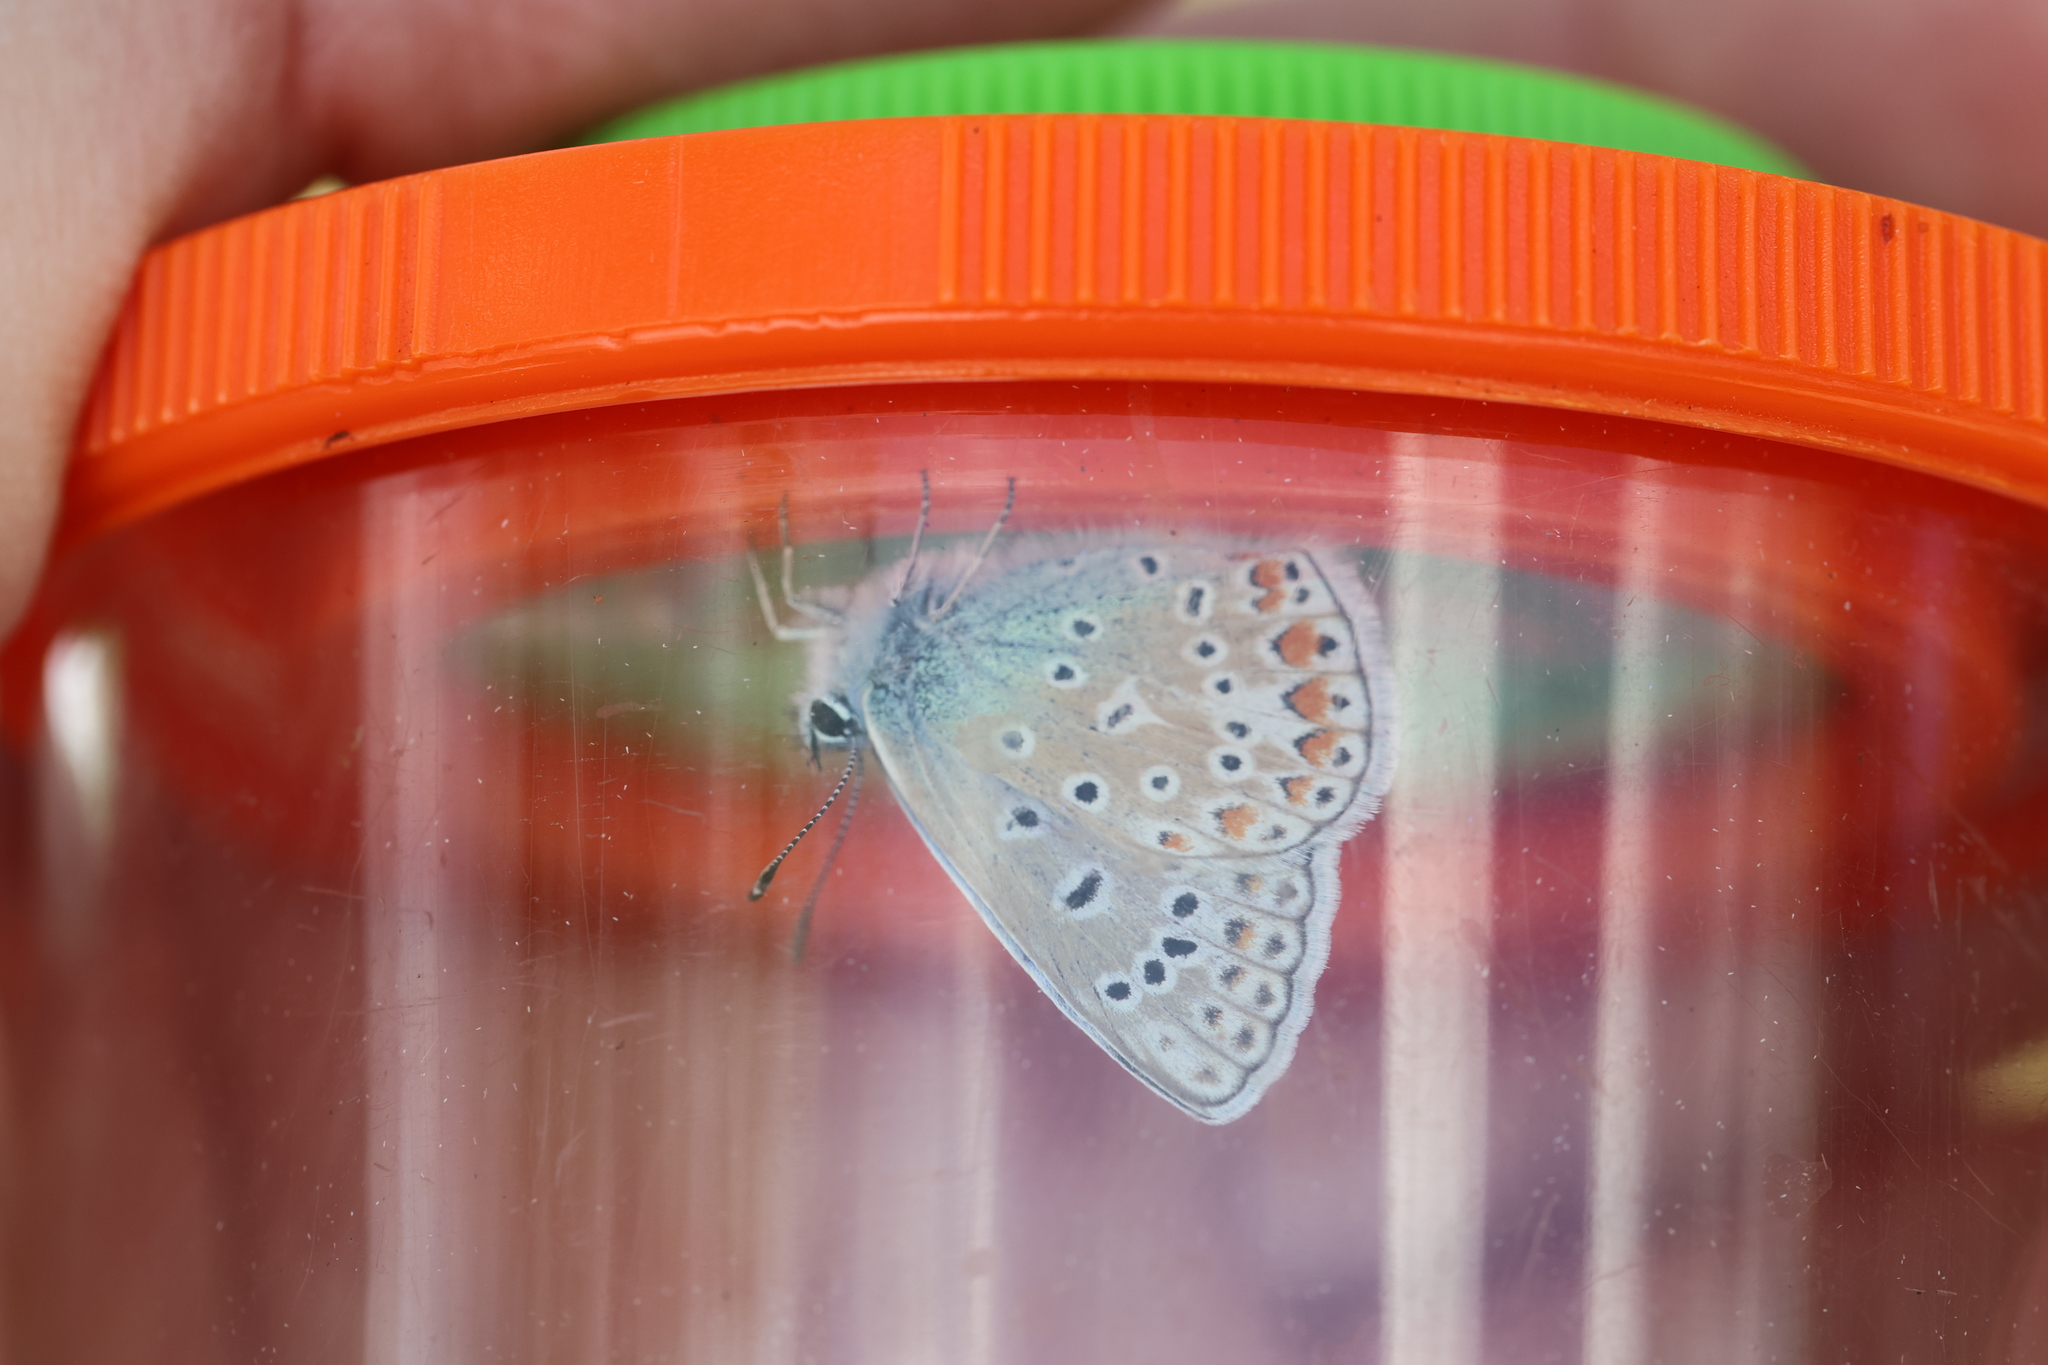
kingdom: Animalia
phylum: Arthropoda
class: Insecta
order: Lepidoptera
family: Lycaenidae
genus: Polyommatus
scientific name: Polyommatus icarus
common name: Common blue
